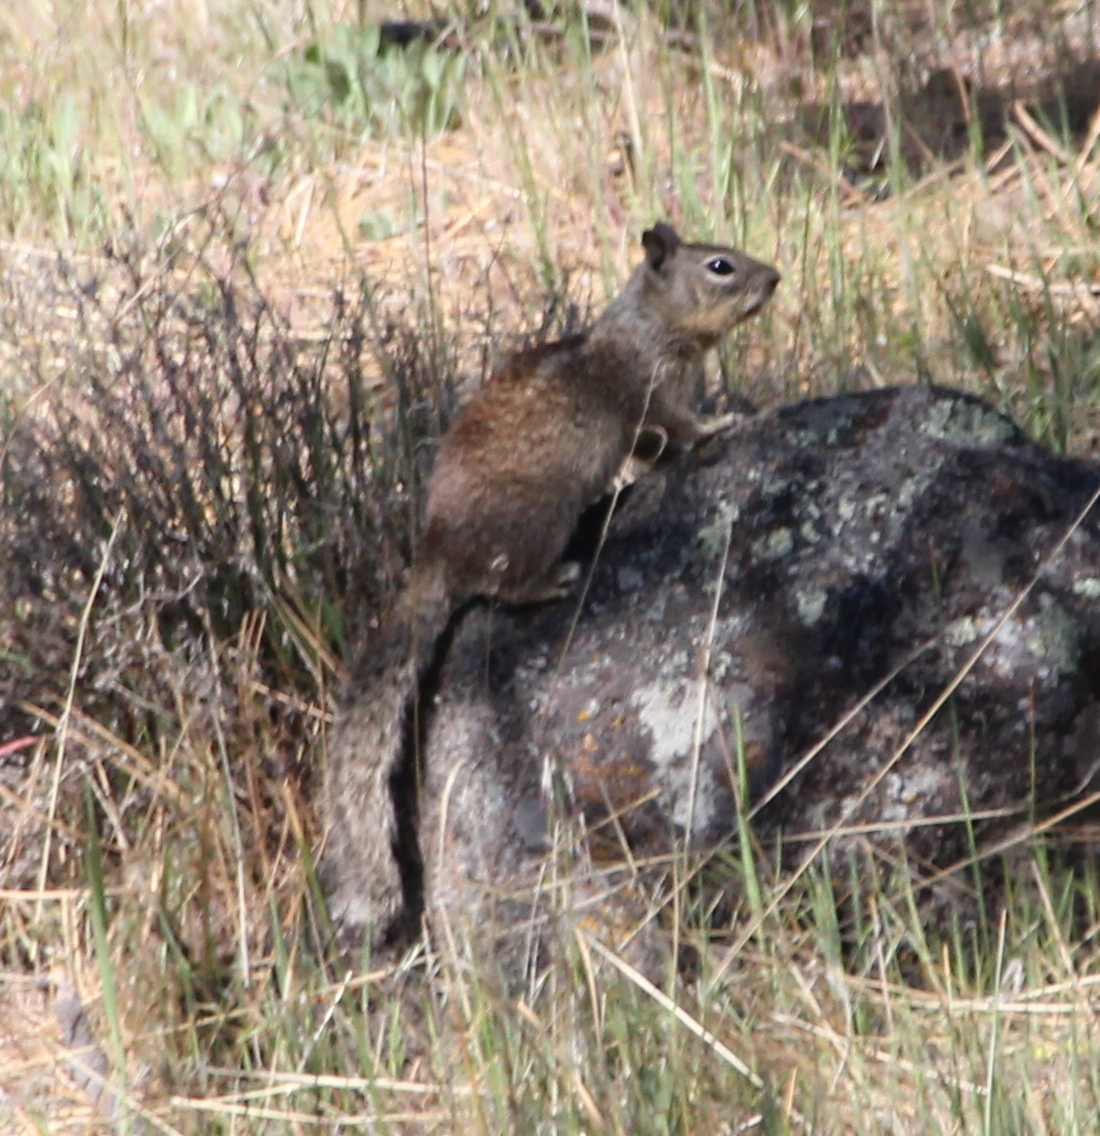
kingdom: Animalia
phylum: Chordata
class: Mammalia
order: Rodentia
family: Sciuridae
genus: Otospermophilus
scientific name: Otospermophilus beecheyi
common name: California ground squirrel
